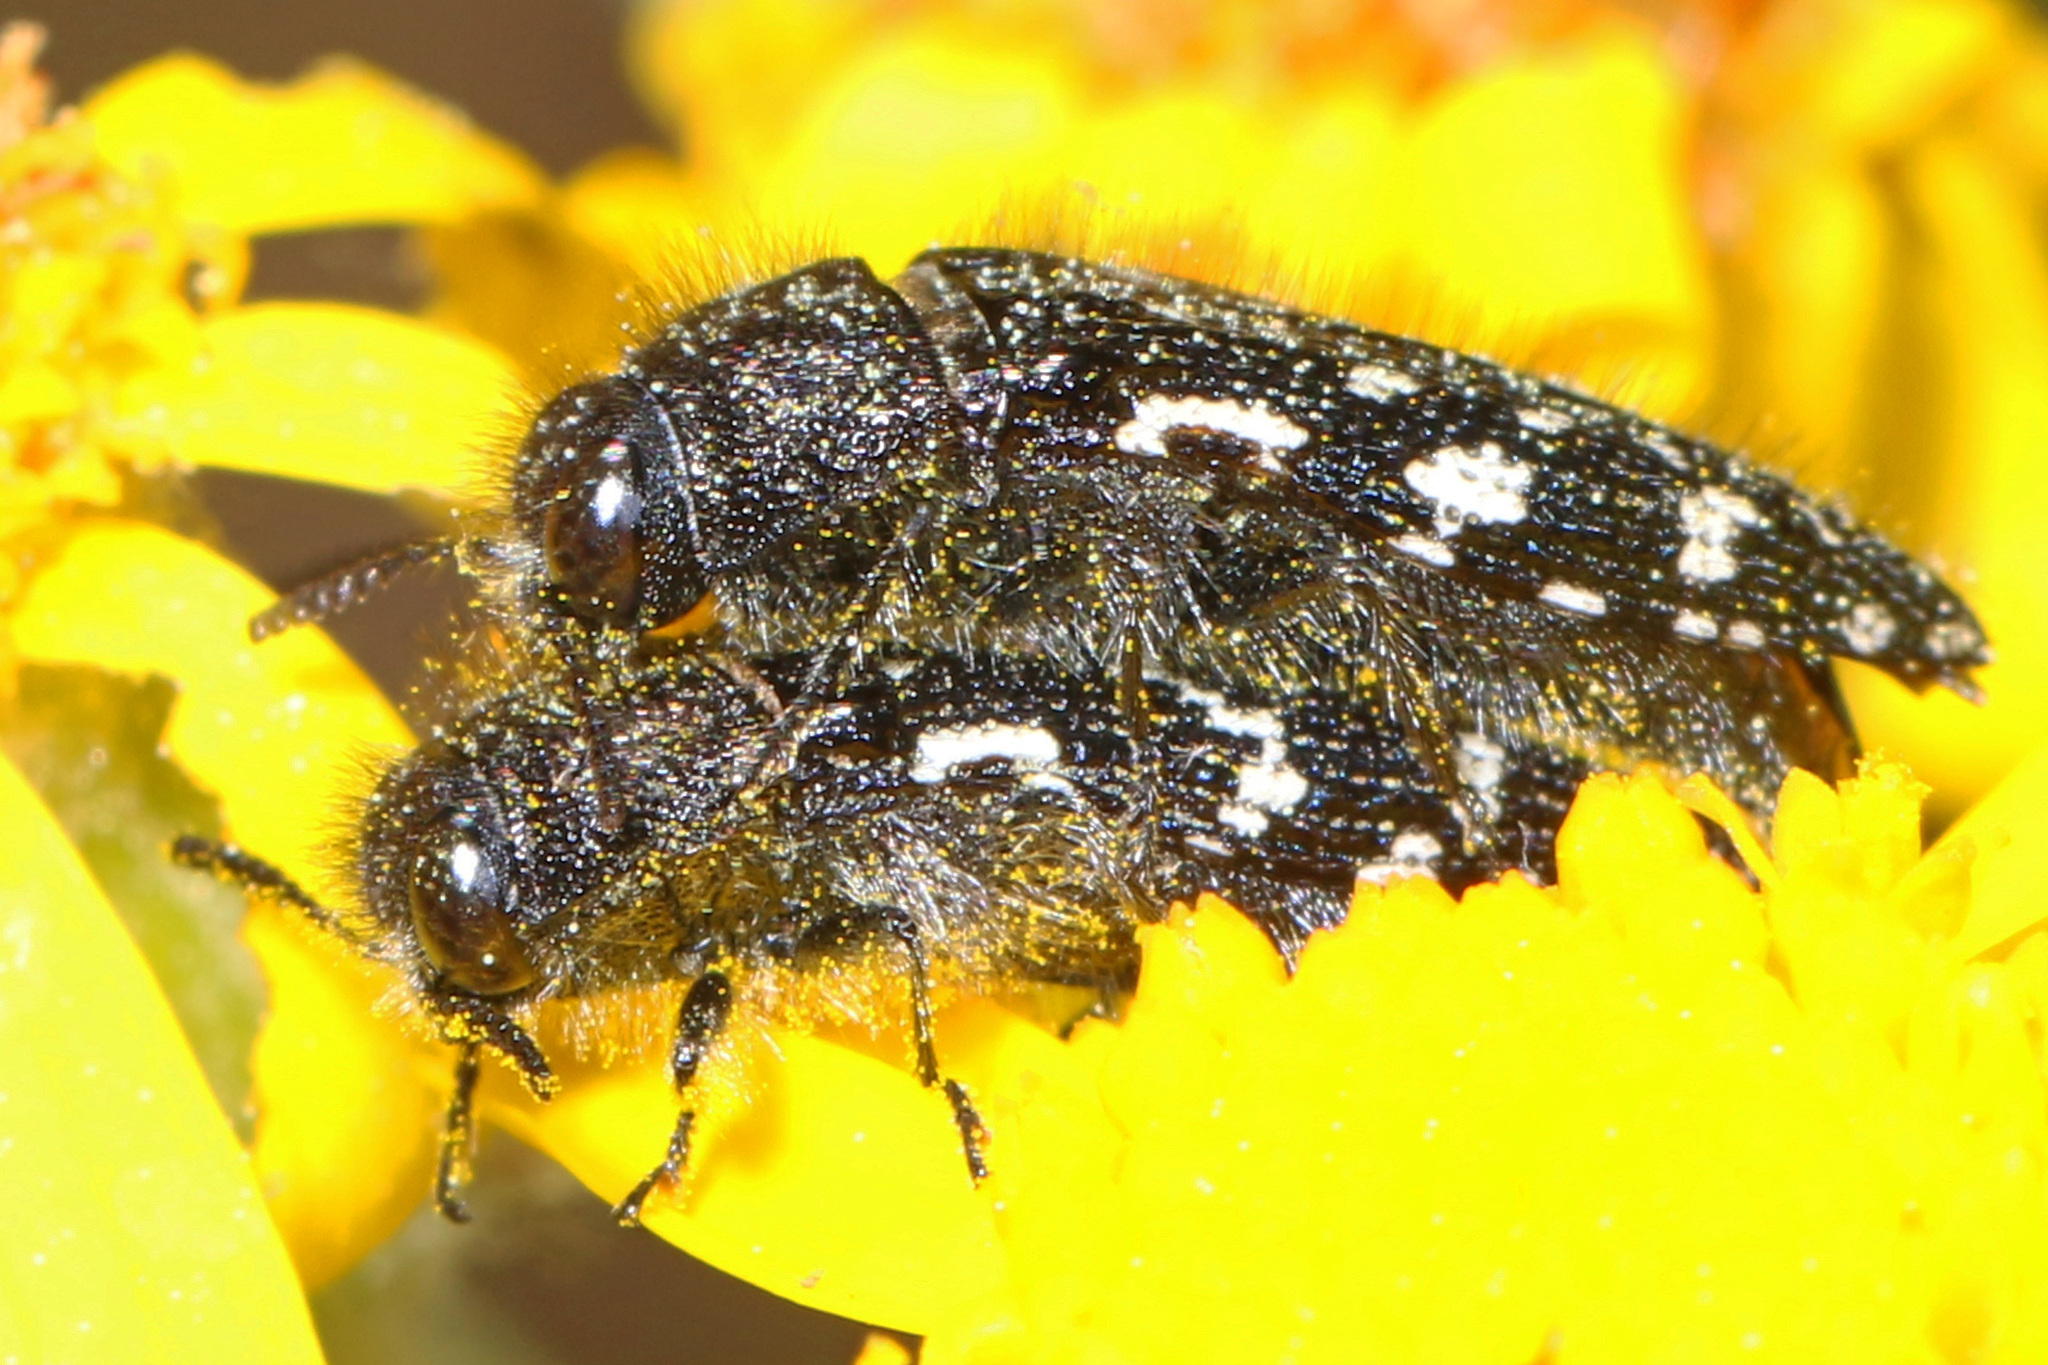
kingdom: Animalia
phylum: Arthropoda
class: Insecta
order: Coleoptera
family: Buprestidae
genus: Acmaeodera
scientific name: Acmaeodera tubulus
